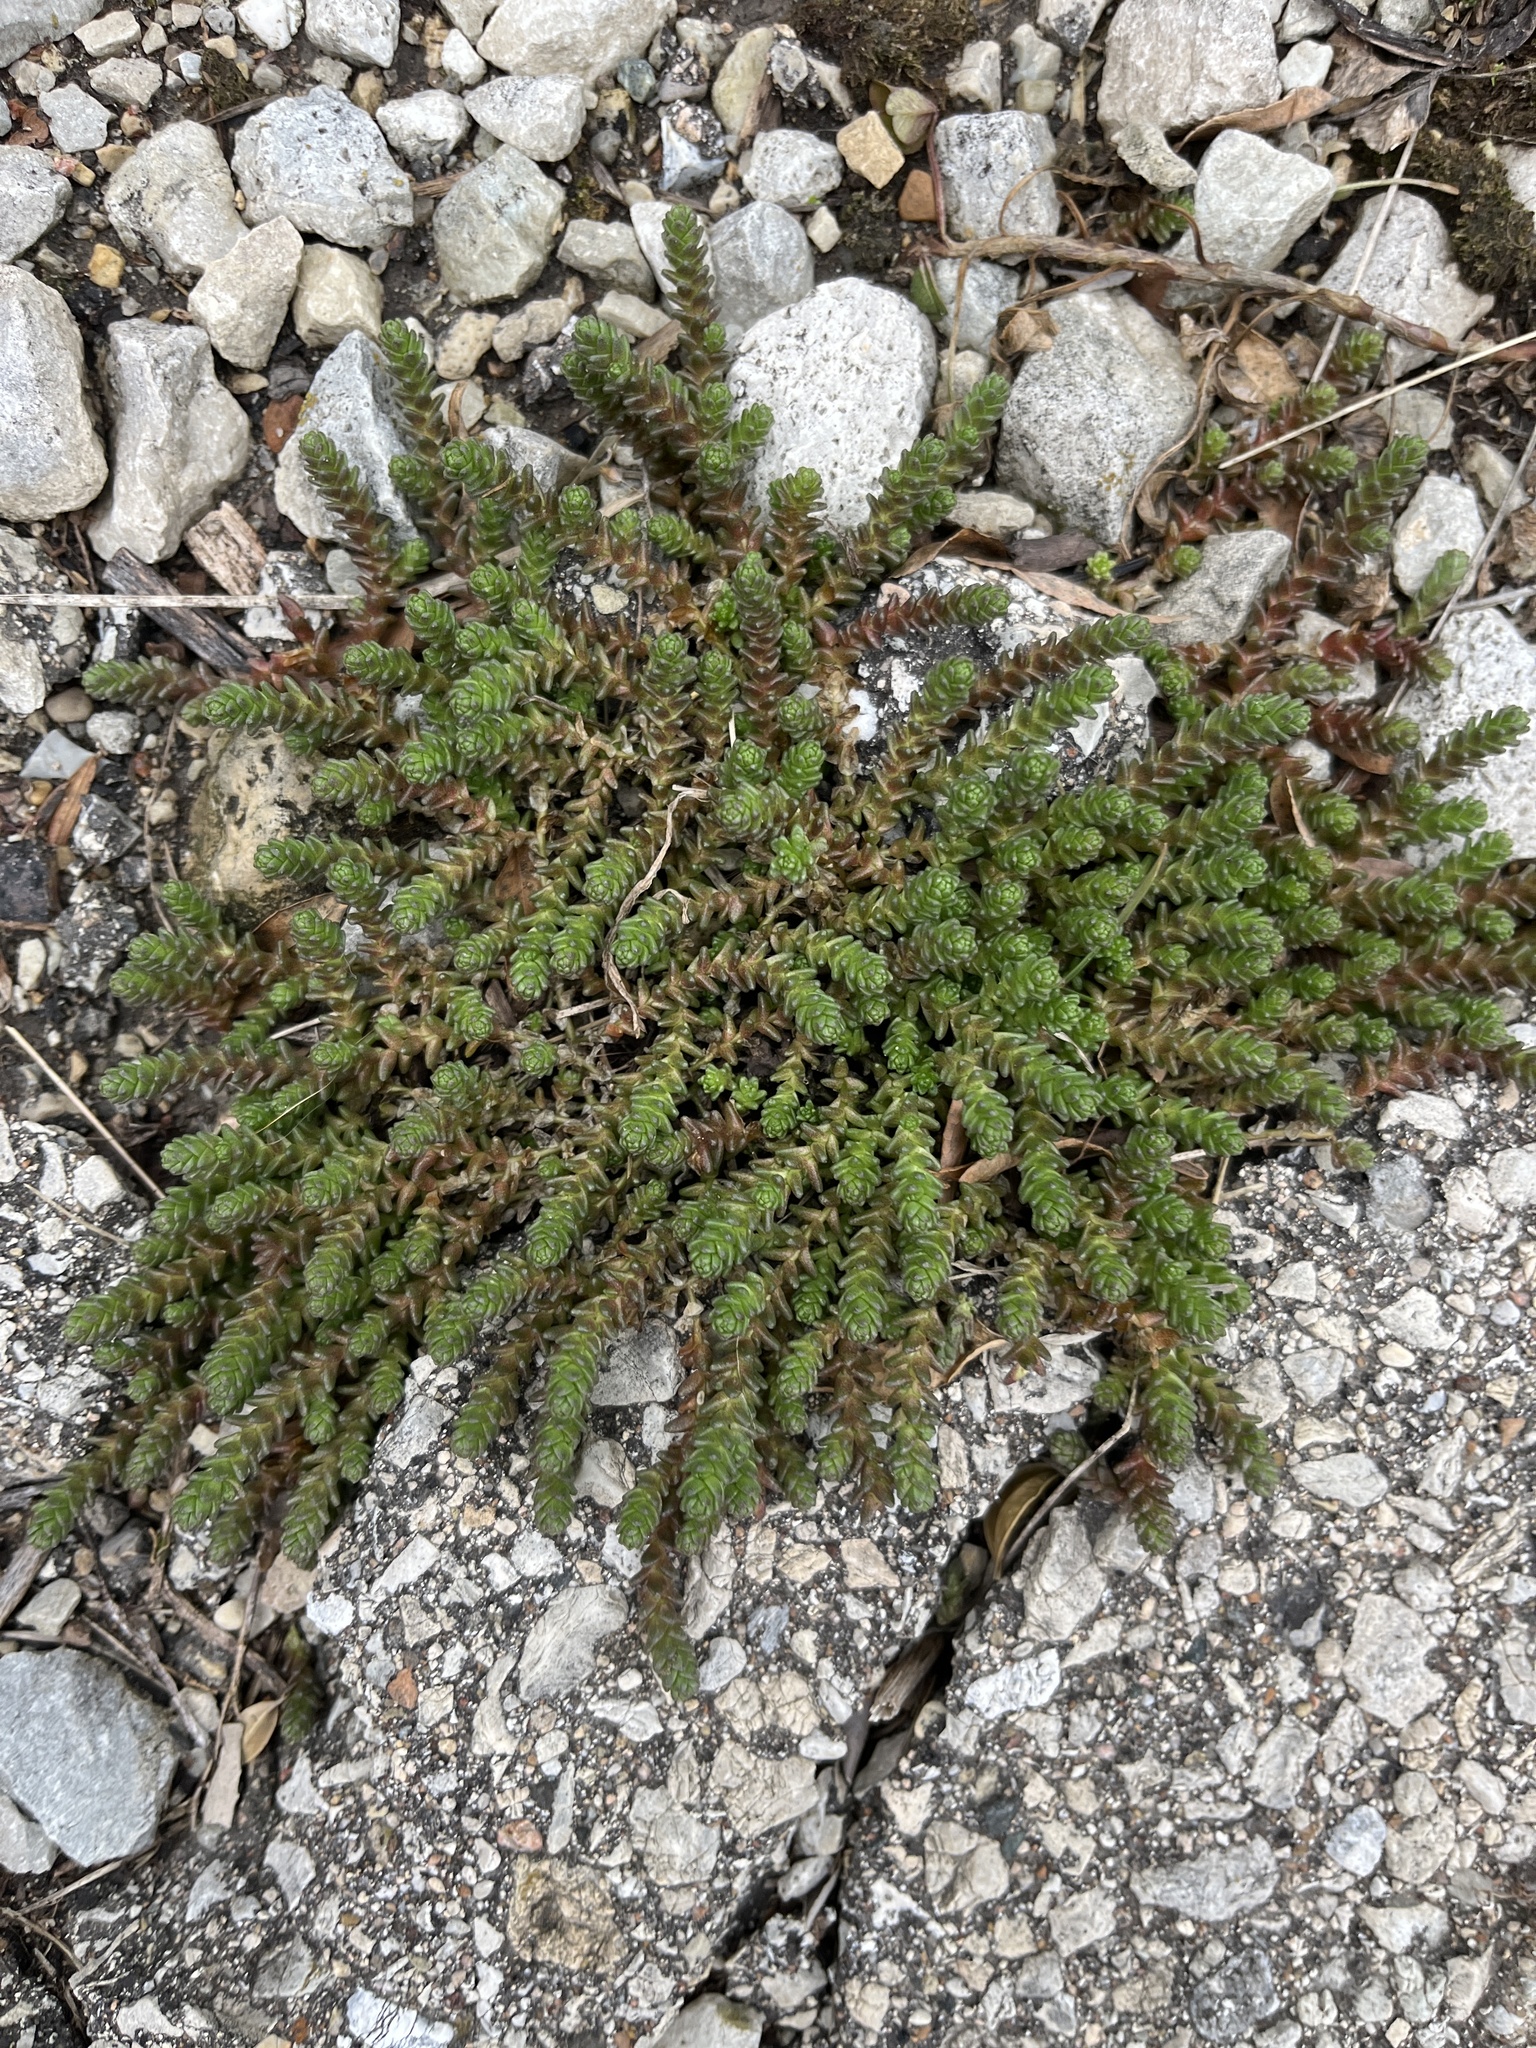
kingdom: Plantae
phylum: Tracheophyta
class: Magnoliopsida
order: Saxifragales
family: Crassulaceae
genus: Sedum
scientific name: Sedum acre
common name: Biting stonecrop
